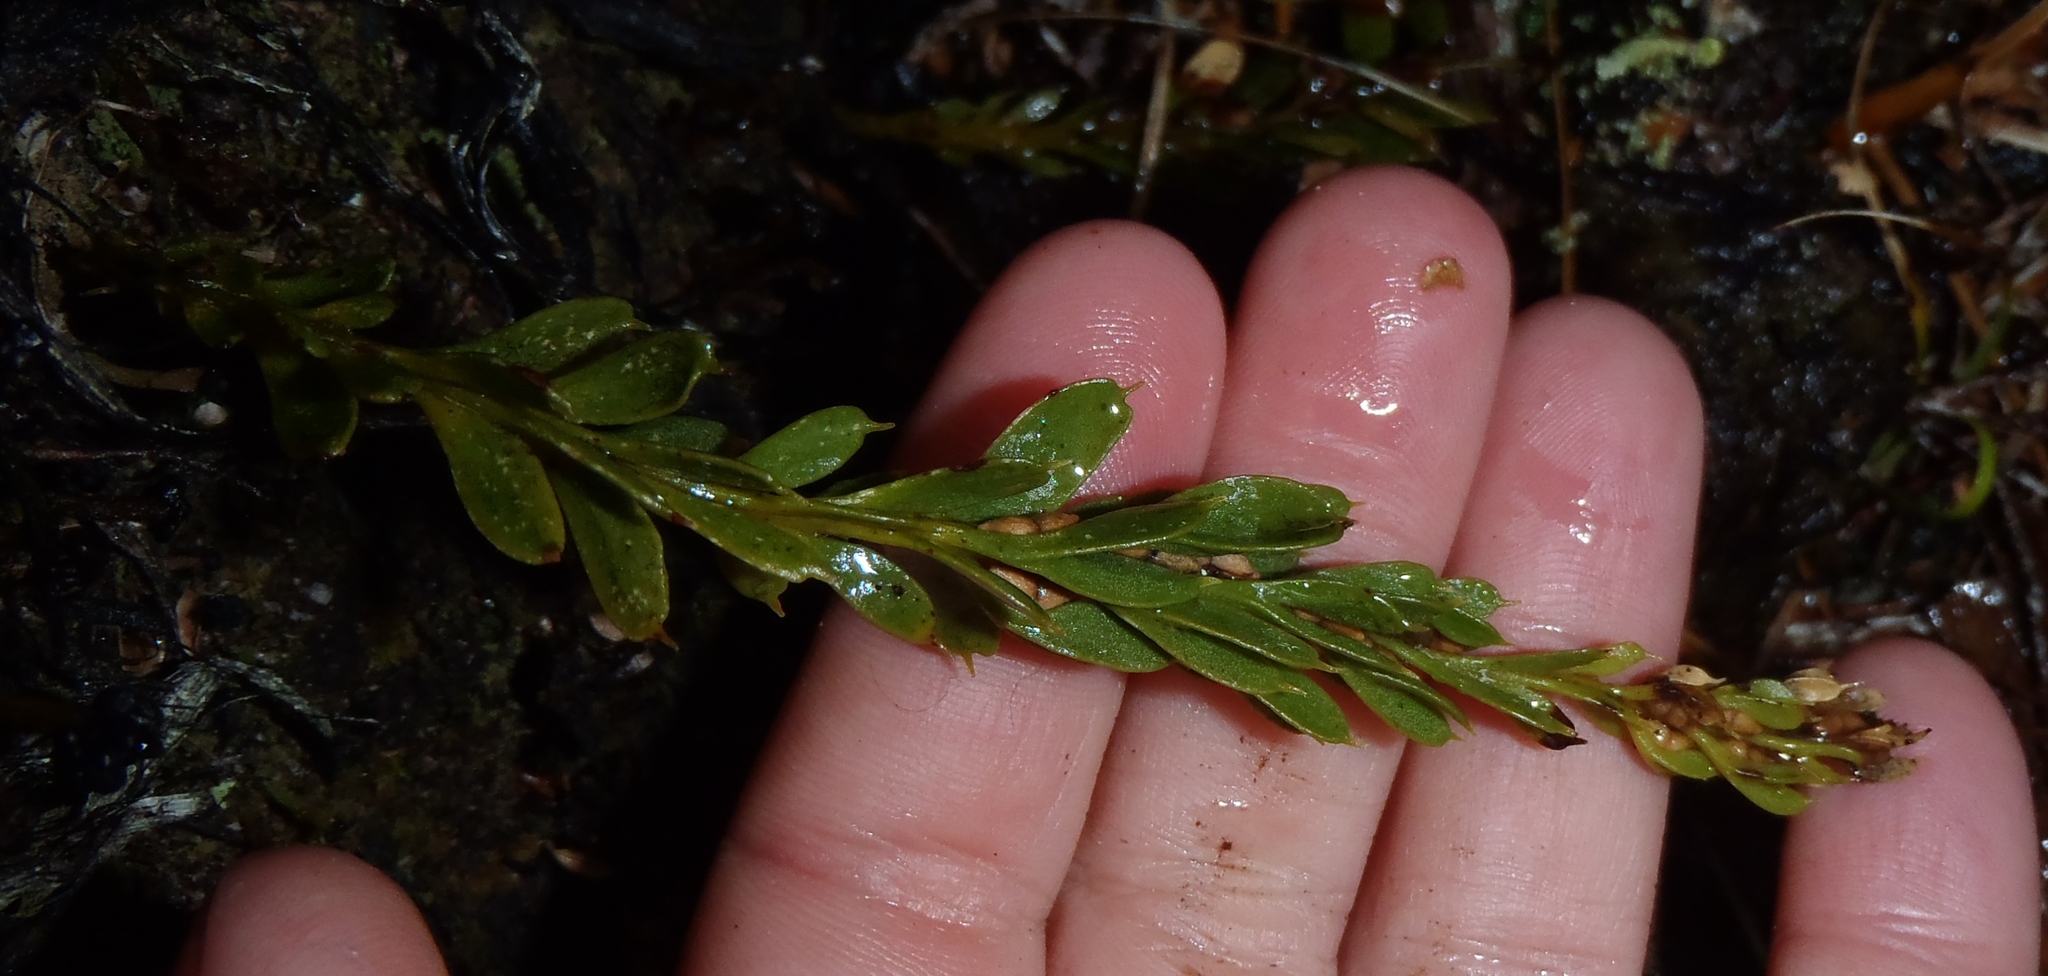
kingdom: Plantae
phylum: Tracheophyta
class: Polypodiopsida
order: Psilotales
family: Psilotaceae
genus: Tmesipteris
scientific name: Tmesipteris tannensis
